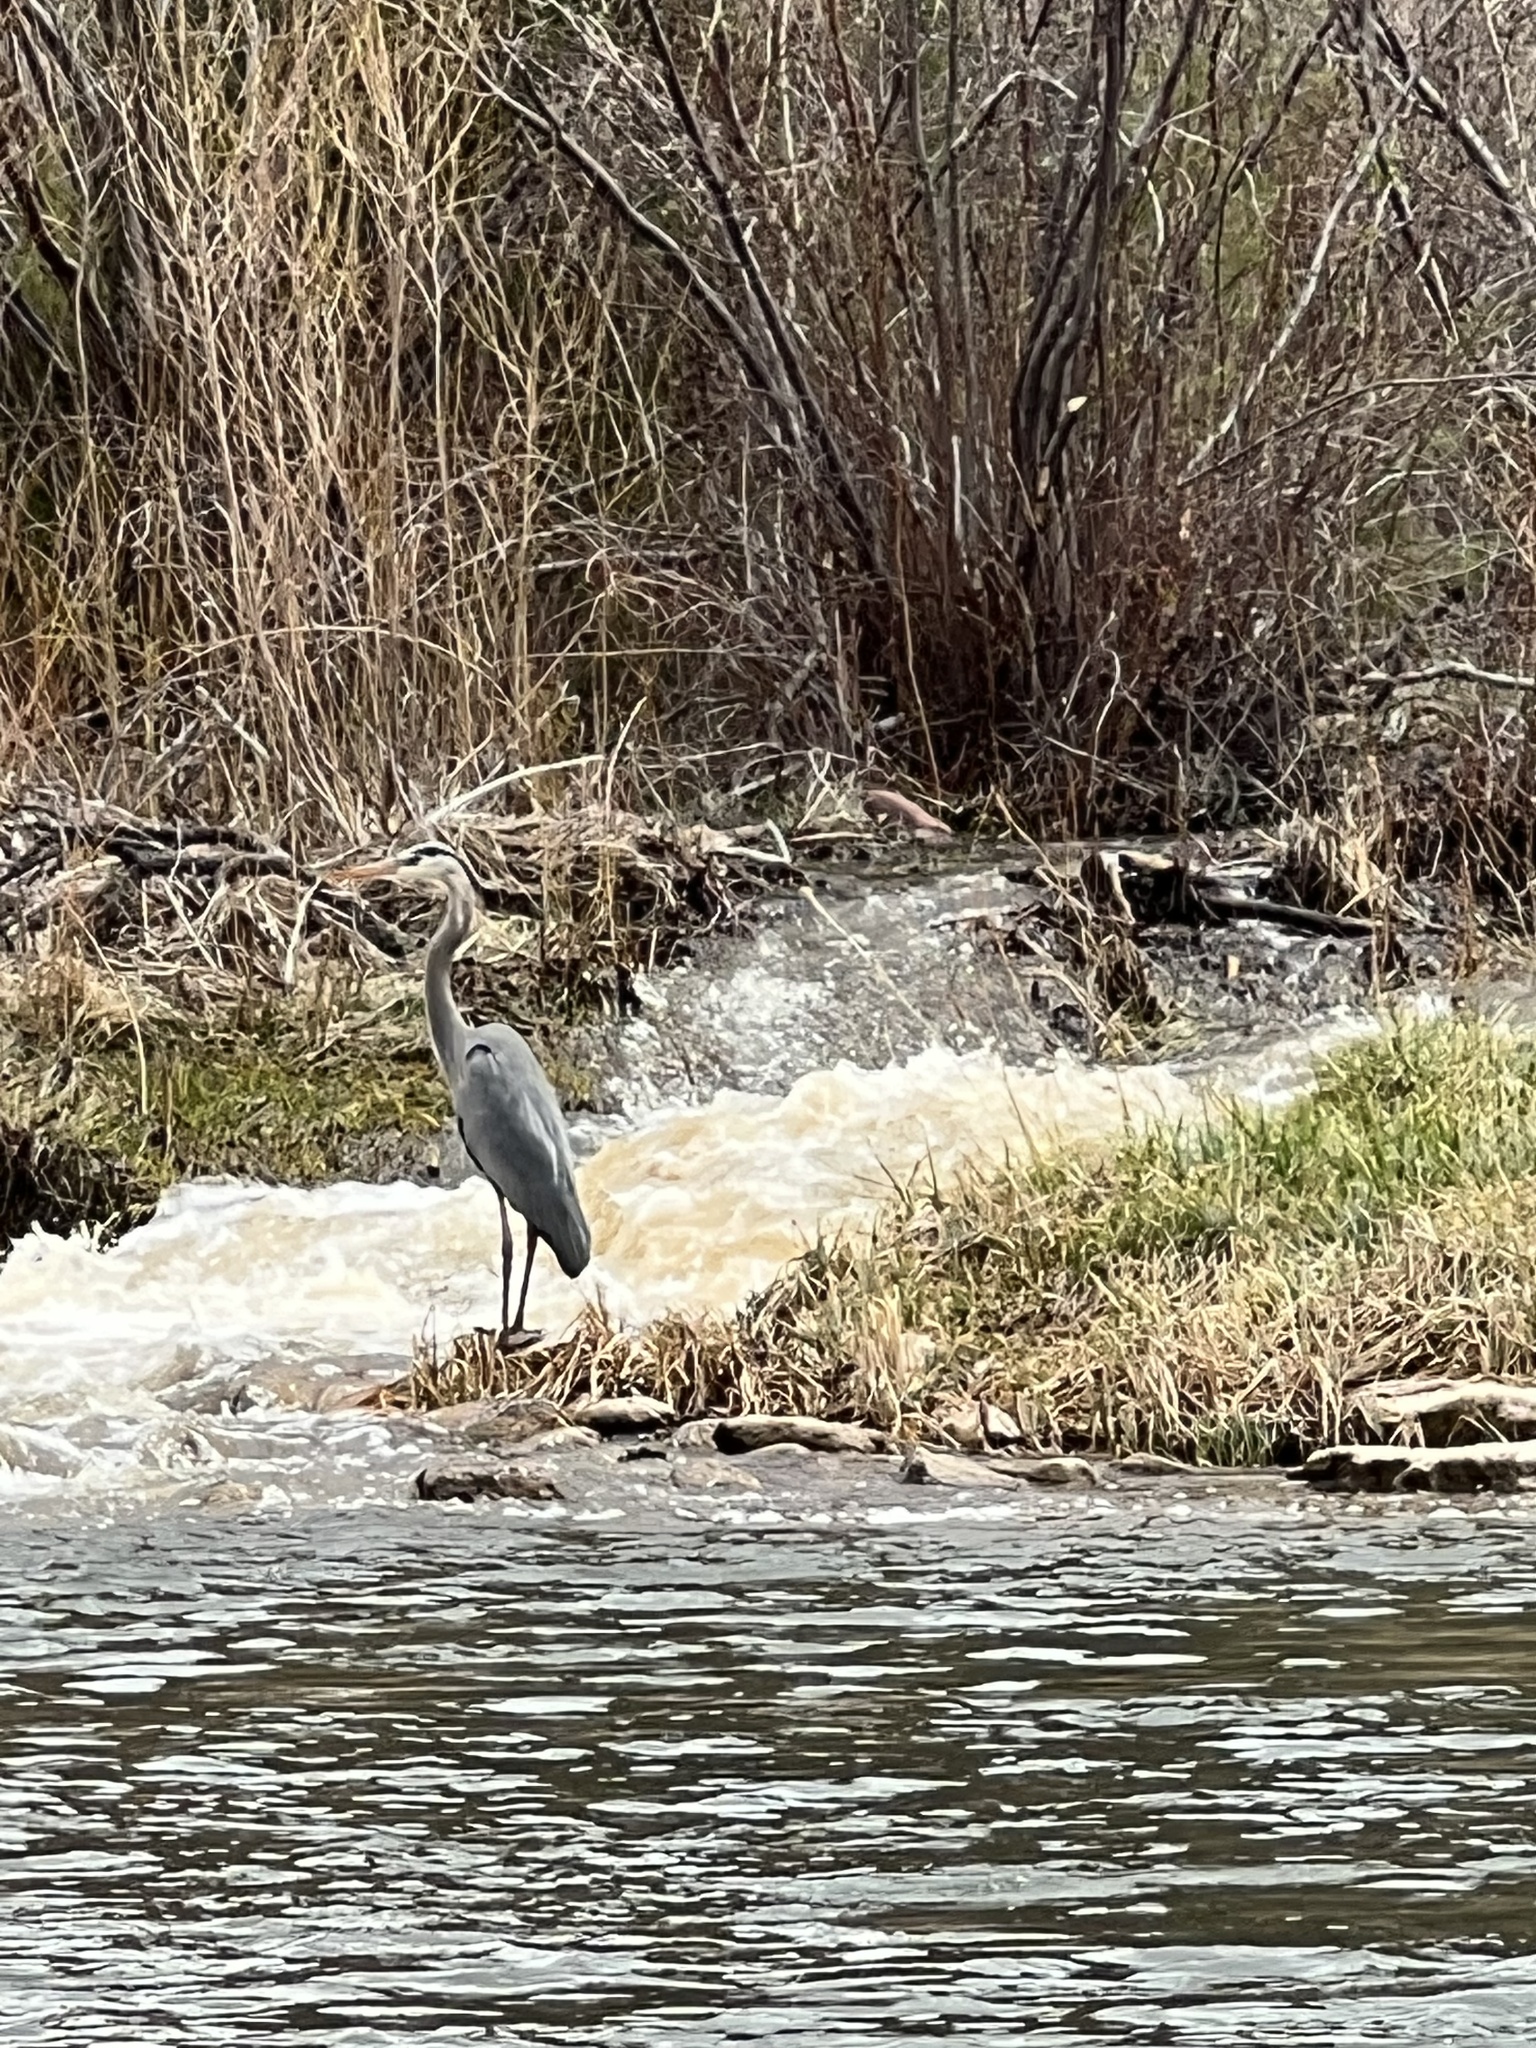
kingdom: Animalia
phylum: Chordata
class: Aves
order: Pelecaniformes
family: Ardeidae
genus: Ardea
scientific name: Ardea herodias
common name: Great blue heron
